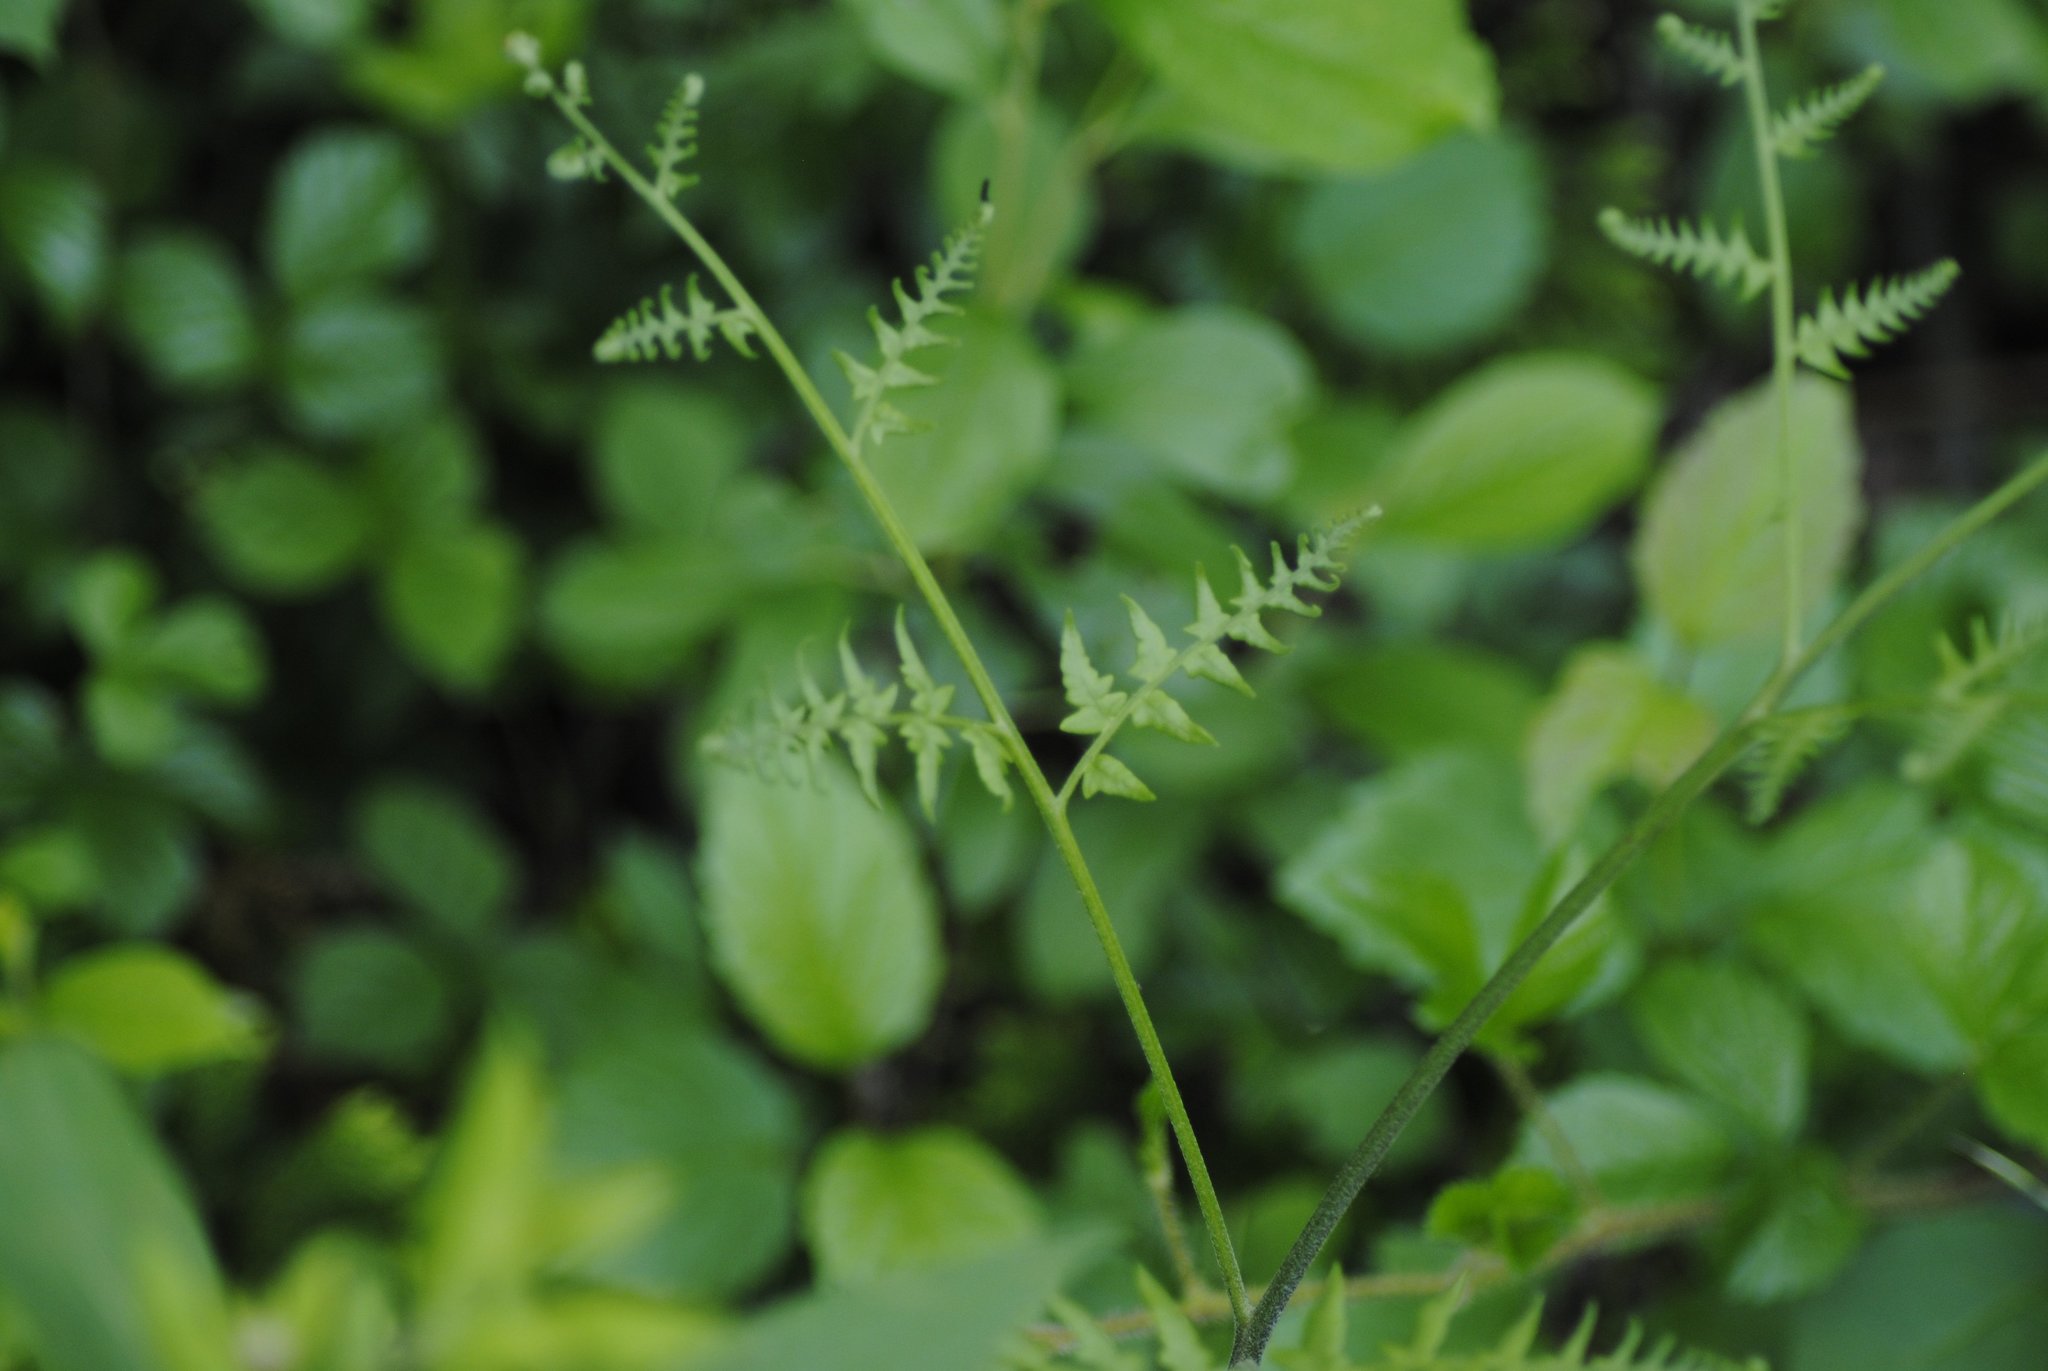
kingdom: Plantae
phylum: Tracheophyta
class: Polypodiopsida
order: Polypodiales
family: Dennstaedtiaceae
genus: Pteridium
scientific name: Pteridium aquilinum
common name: Bracken
